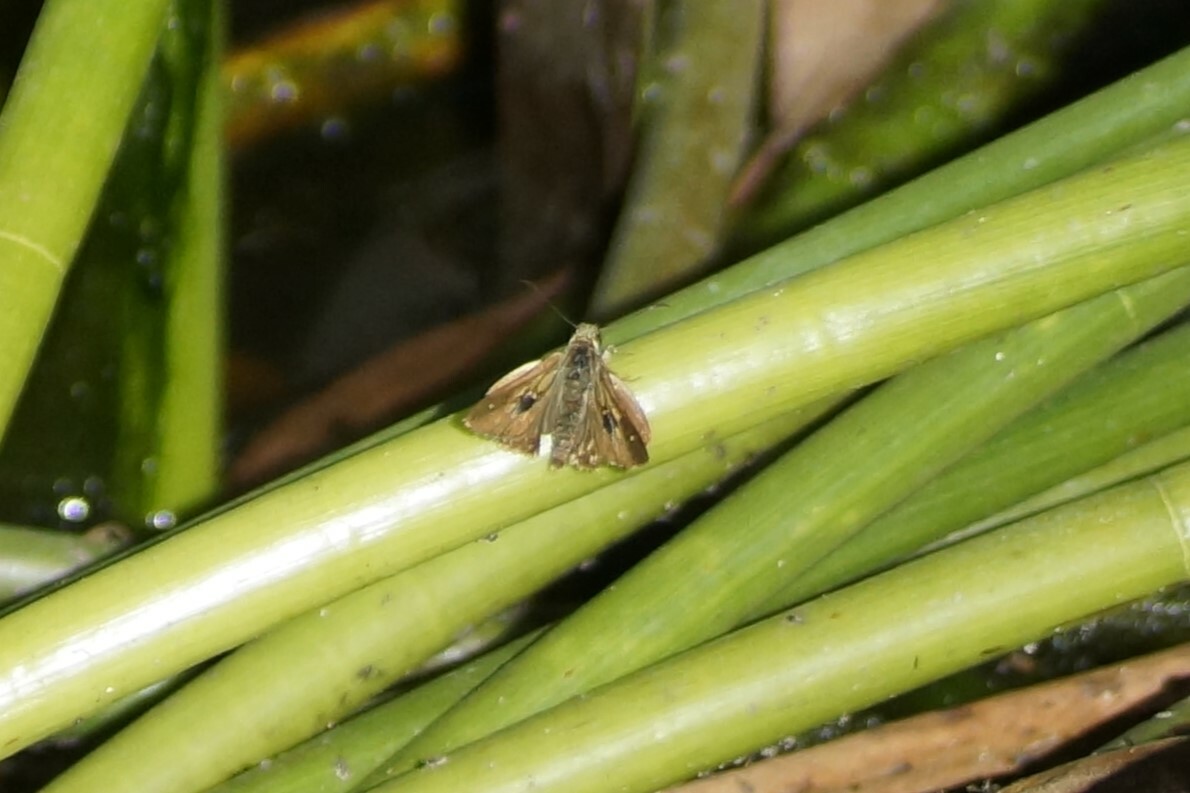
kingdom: Animalia
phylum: Arthropoda
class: Insecta
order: Lepidoptera
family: Hesperiidae
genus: Toxidia
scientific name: Toxidia
